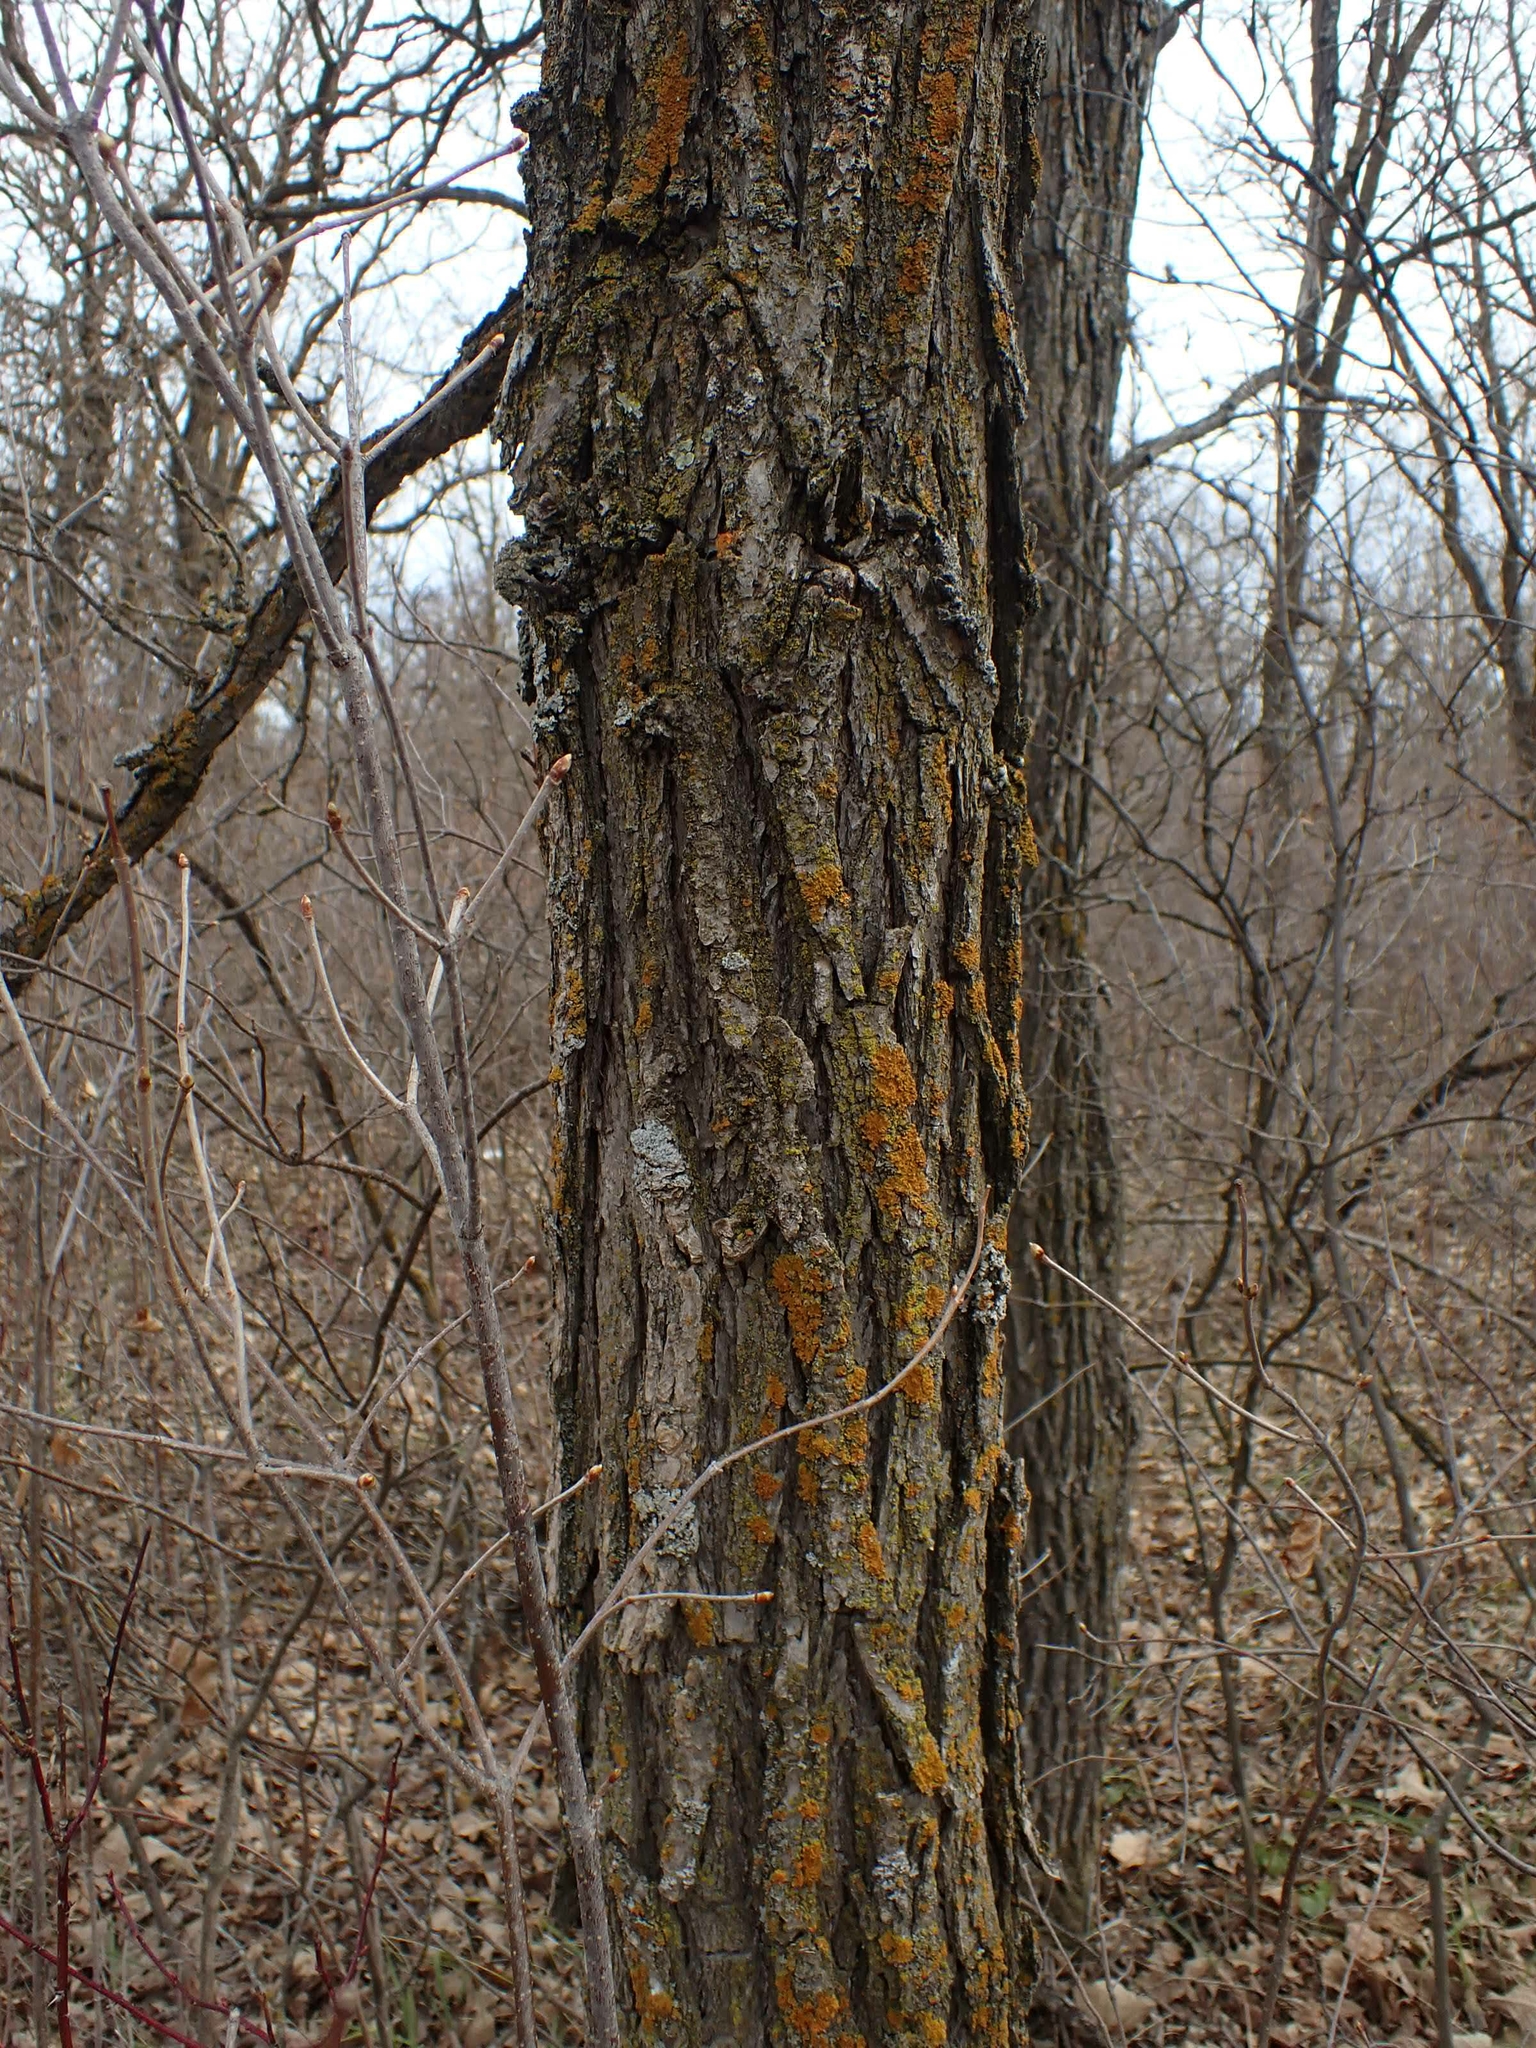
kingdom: Plantae
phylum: Tracheophyta
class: Magnoliopsida
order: Fagales
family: Fagaceae
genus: Quercus
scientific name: Quercus macrocarpa
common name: Bur oak
